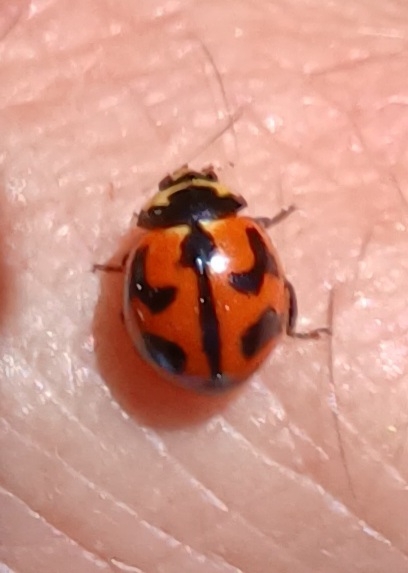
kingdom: Animalia
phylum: Arthropoda
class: Insecta
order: Coleoptera
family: Coccinellidae
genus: Coccinella
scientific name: Coccinella transversalis
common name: Transverse lady beetle
